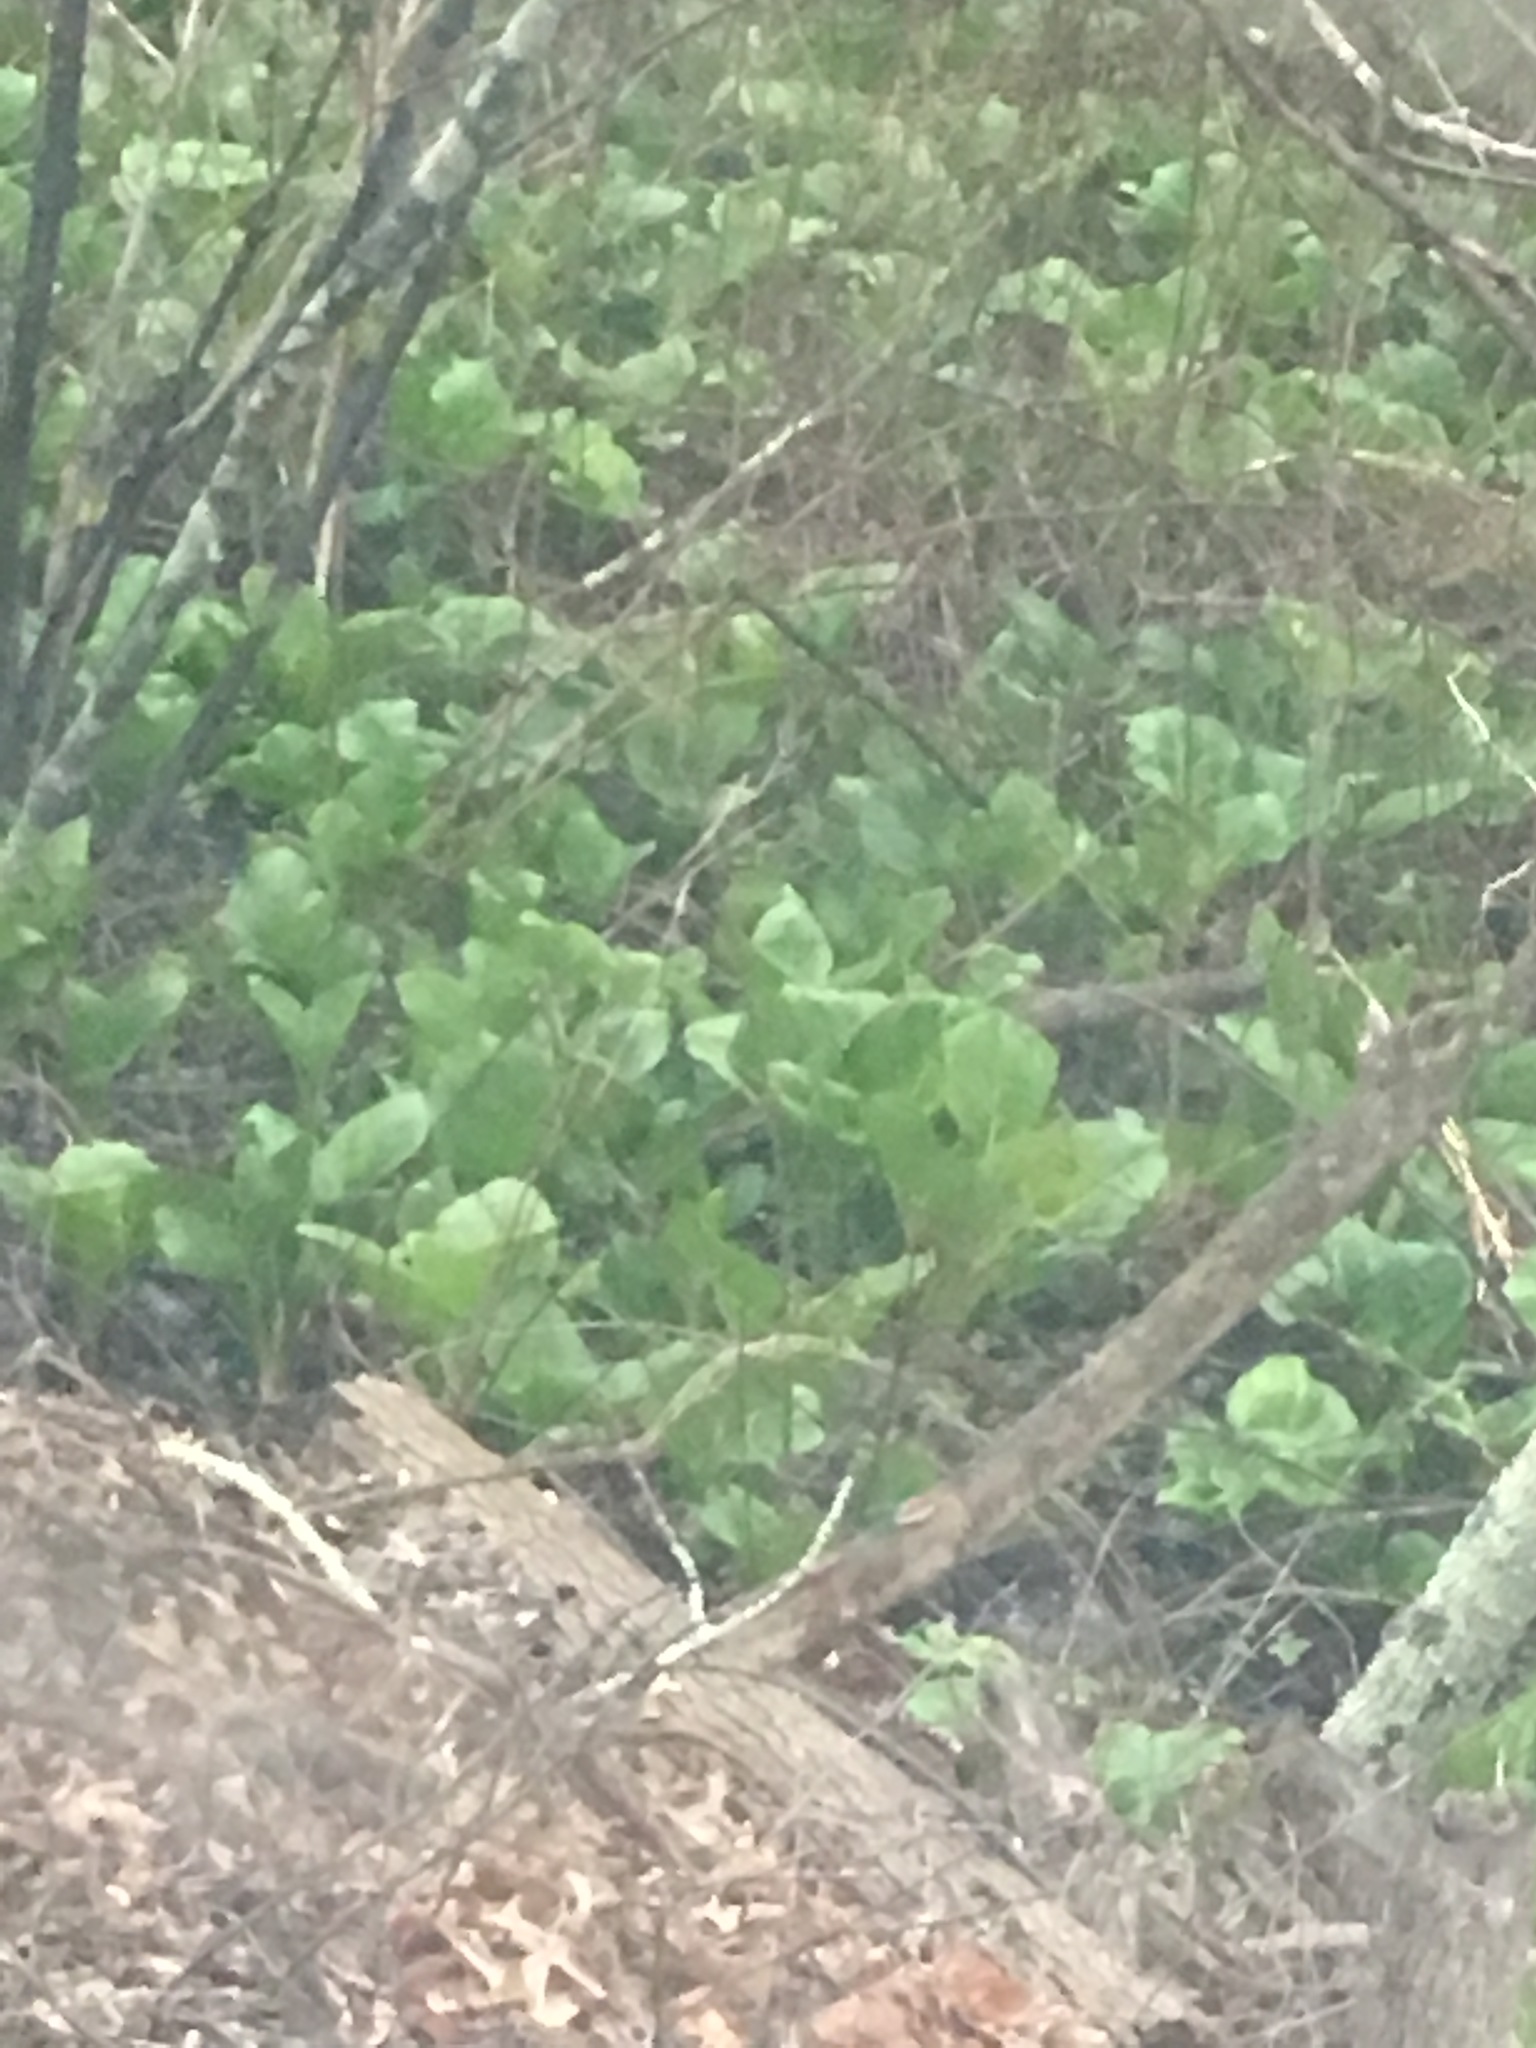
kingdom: Plantae
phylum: Tracheophyta
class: Liliopsida
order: Alismatales
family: Araceae
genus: Symplocarpus
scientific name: Symplocarpus foetidus
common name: Eastern skunk cabbage
